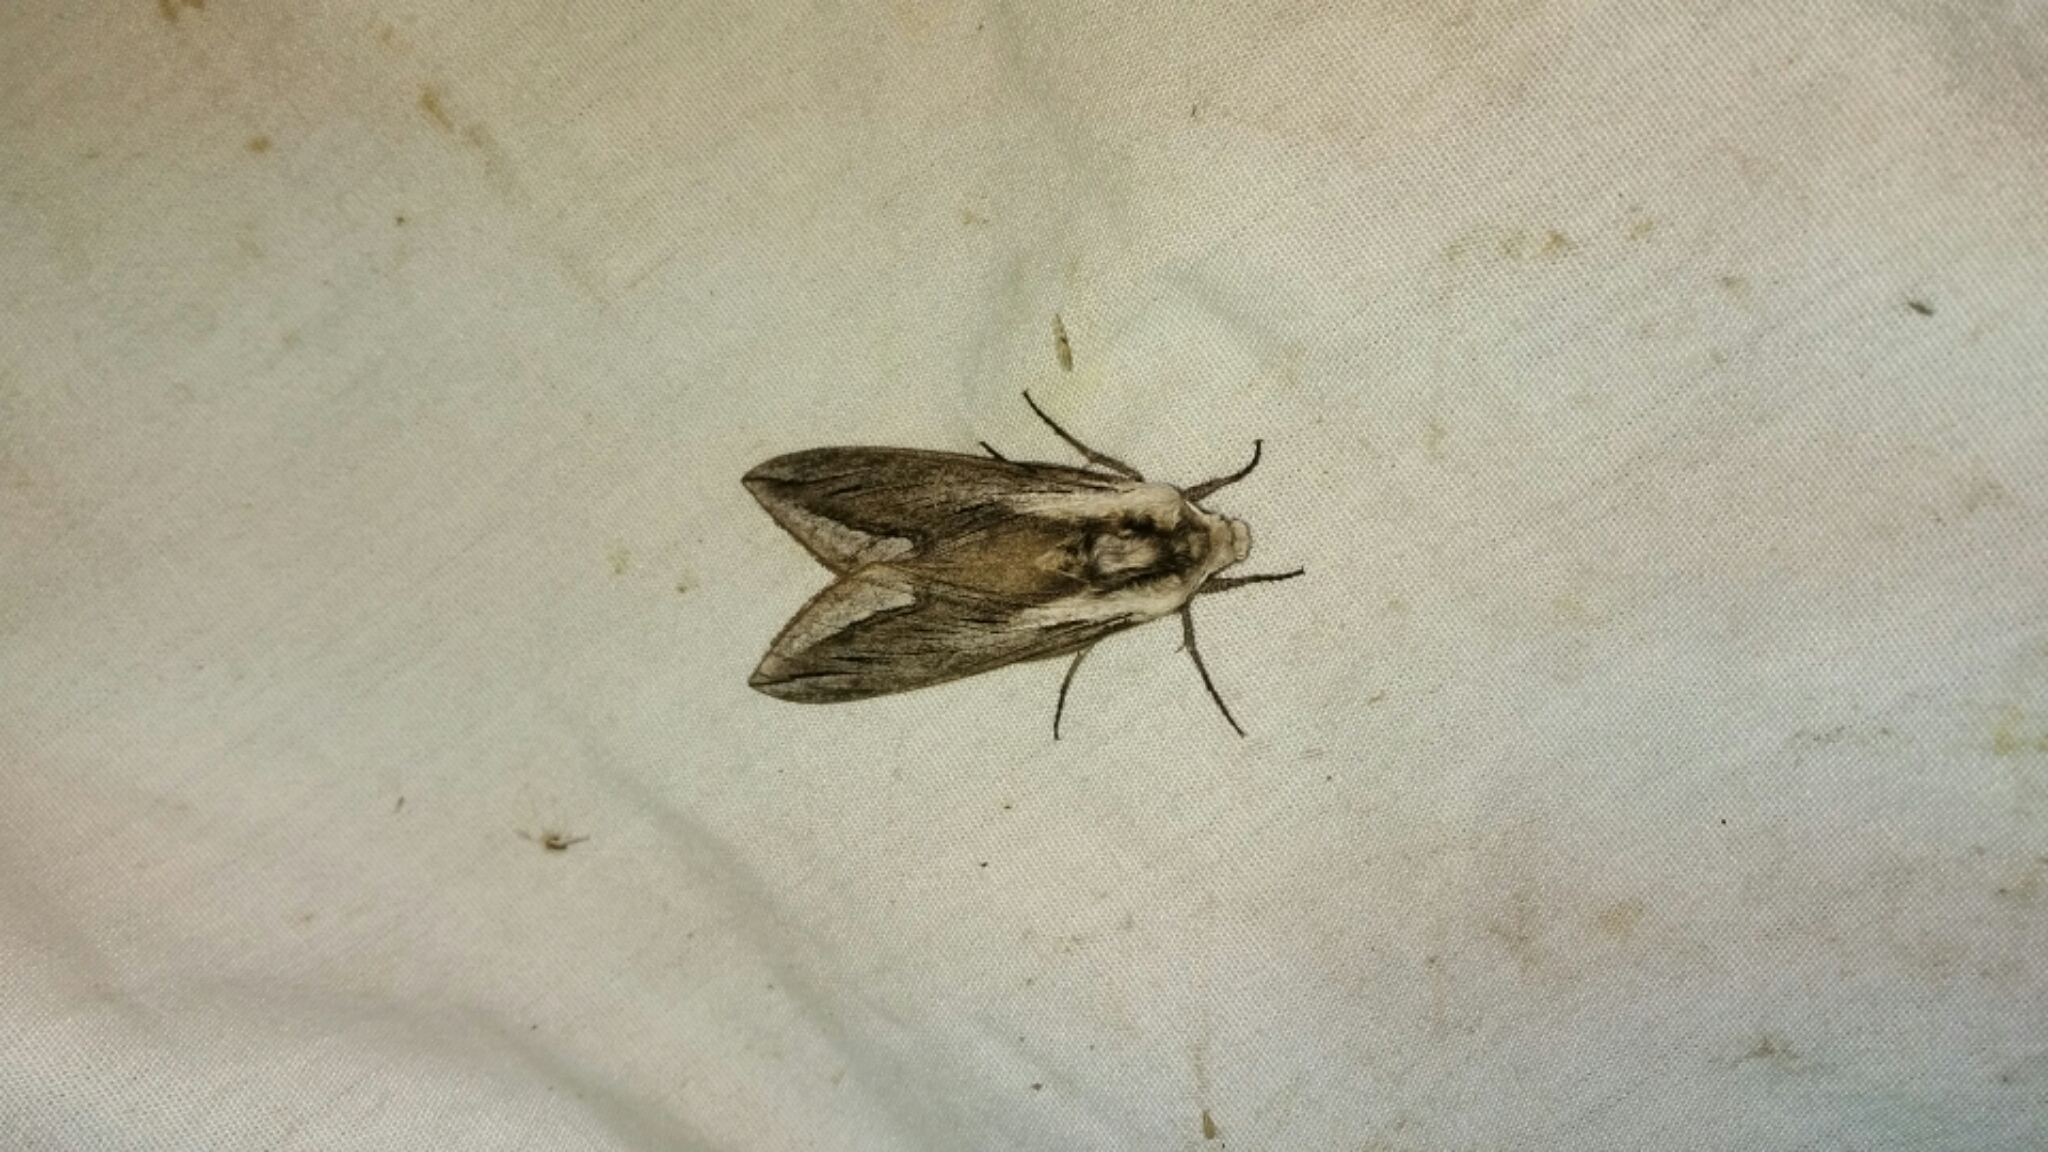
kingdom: Animalia
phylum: Arthropoda
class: Insecta
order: Lepidoptera
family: Sphingidae
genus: Sphinx
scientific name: Sphinx vashti
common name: Snowberry sphinx
